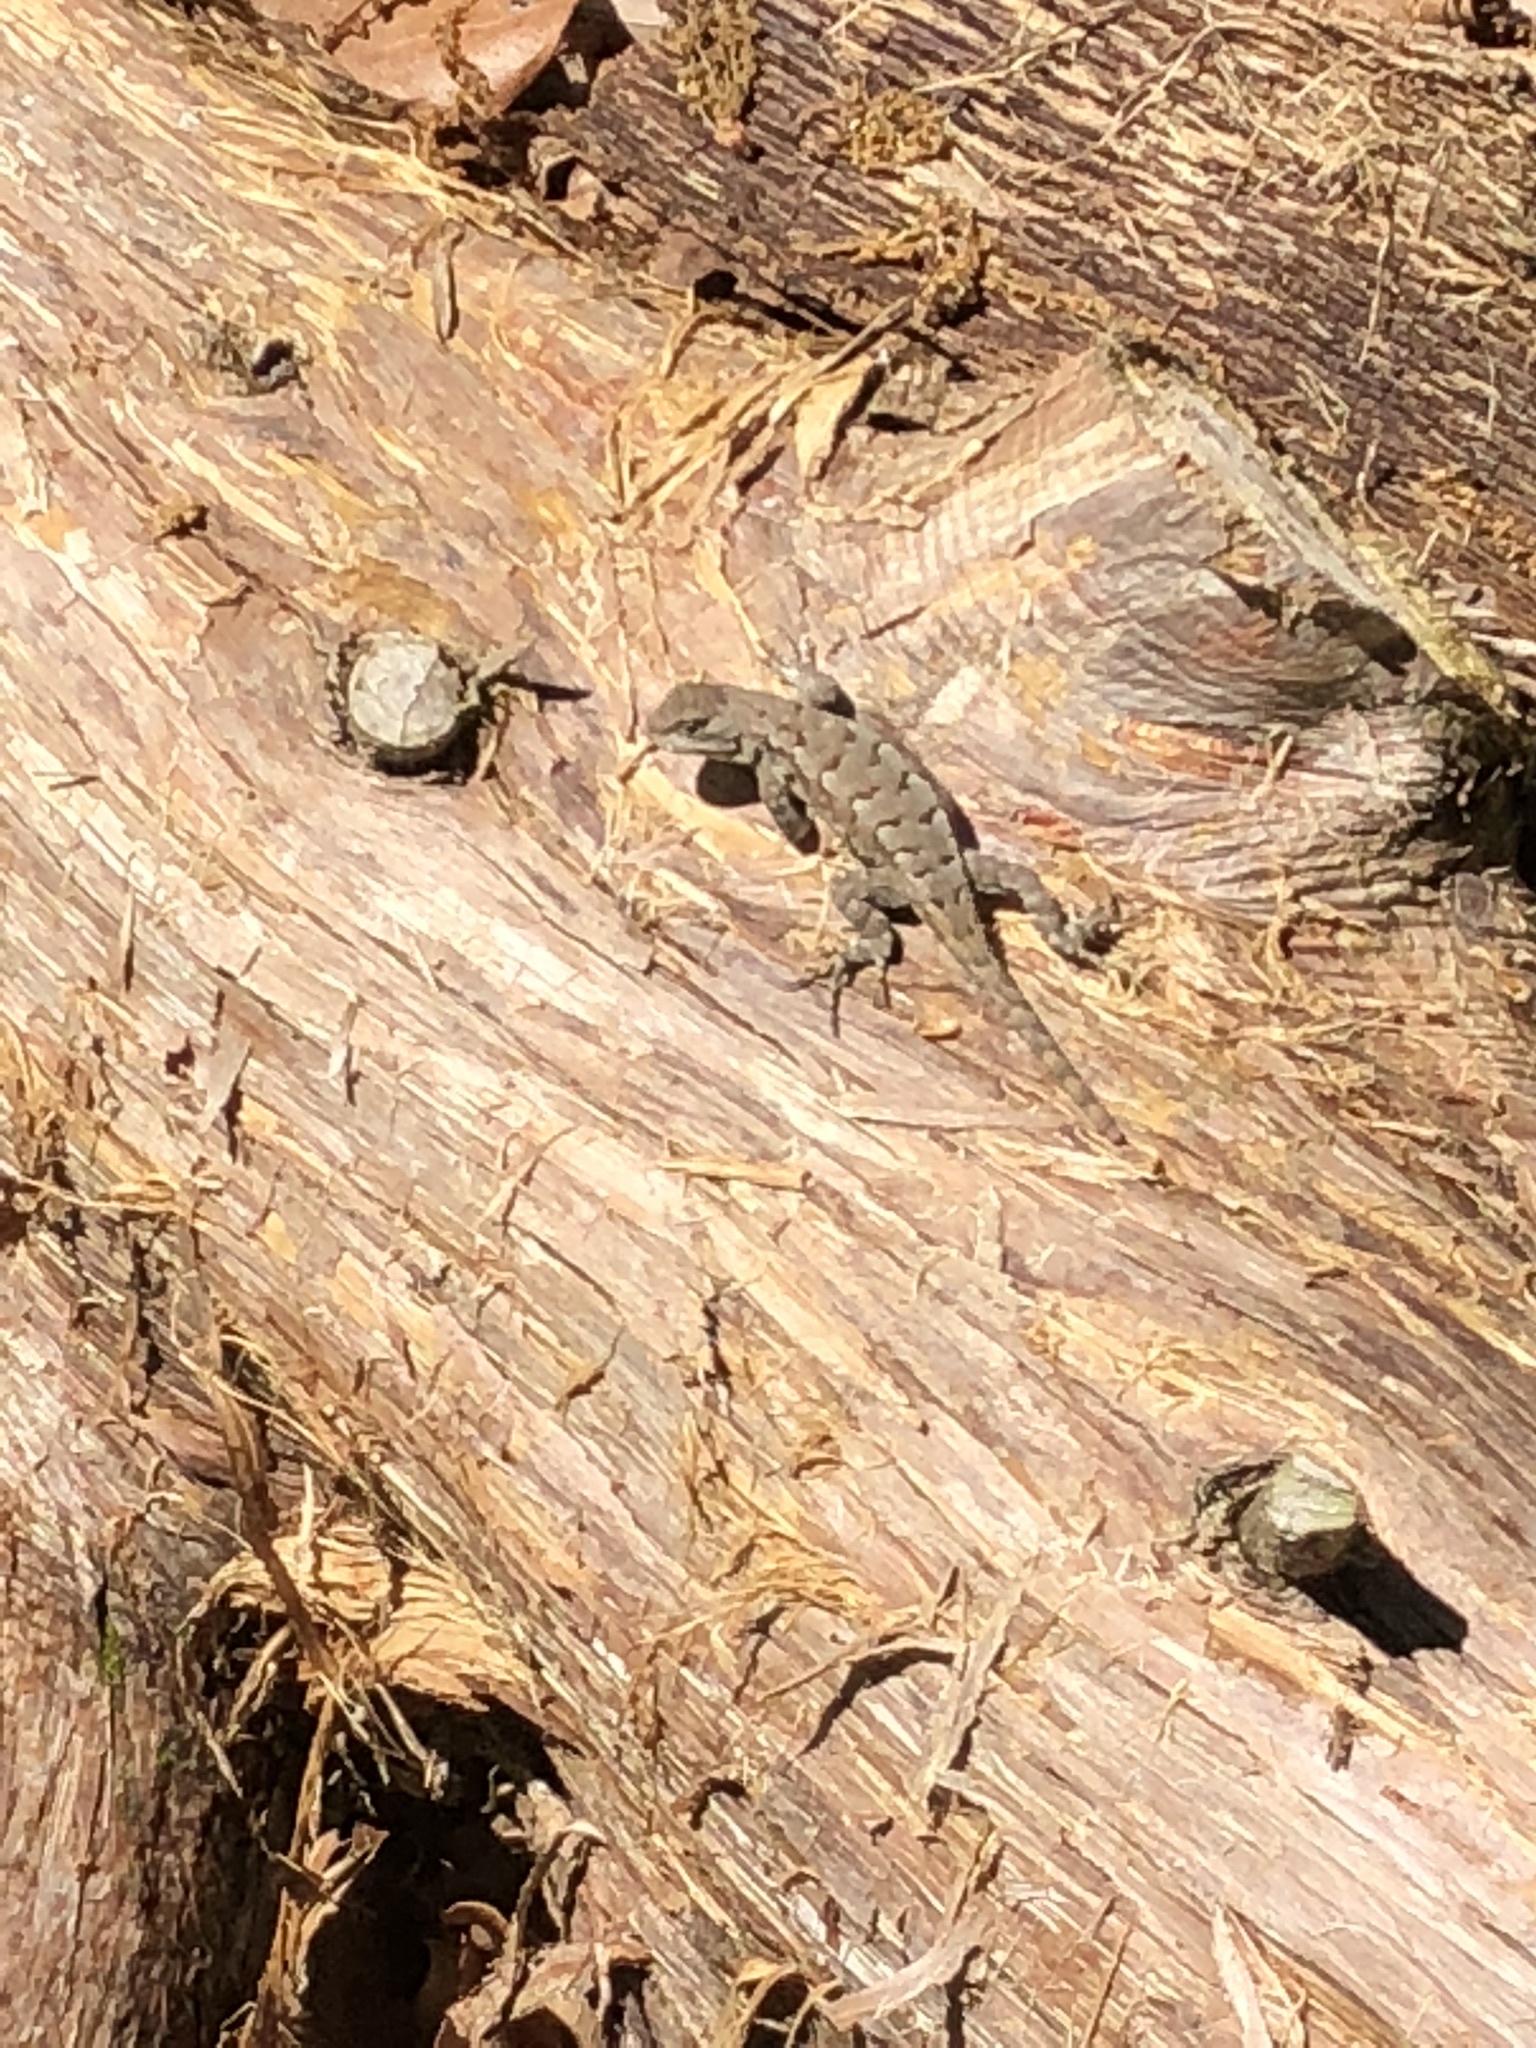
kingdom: Animalia
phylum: Chordata
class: Squamata
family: Phrynosomatidae
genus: Sceloporus
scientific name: Sceloporus consobrinus
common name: Southern prairie lizard
